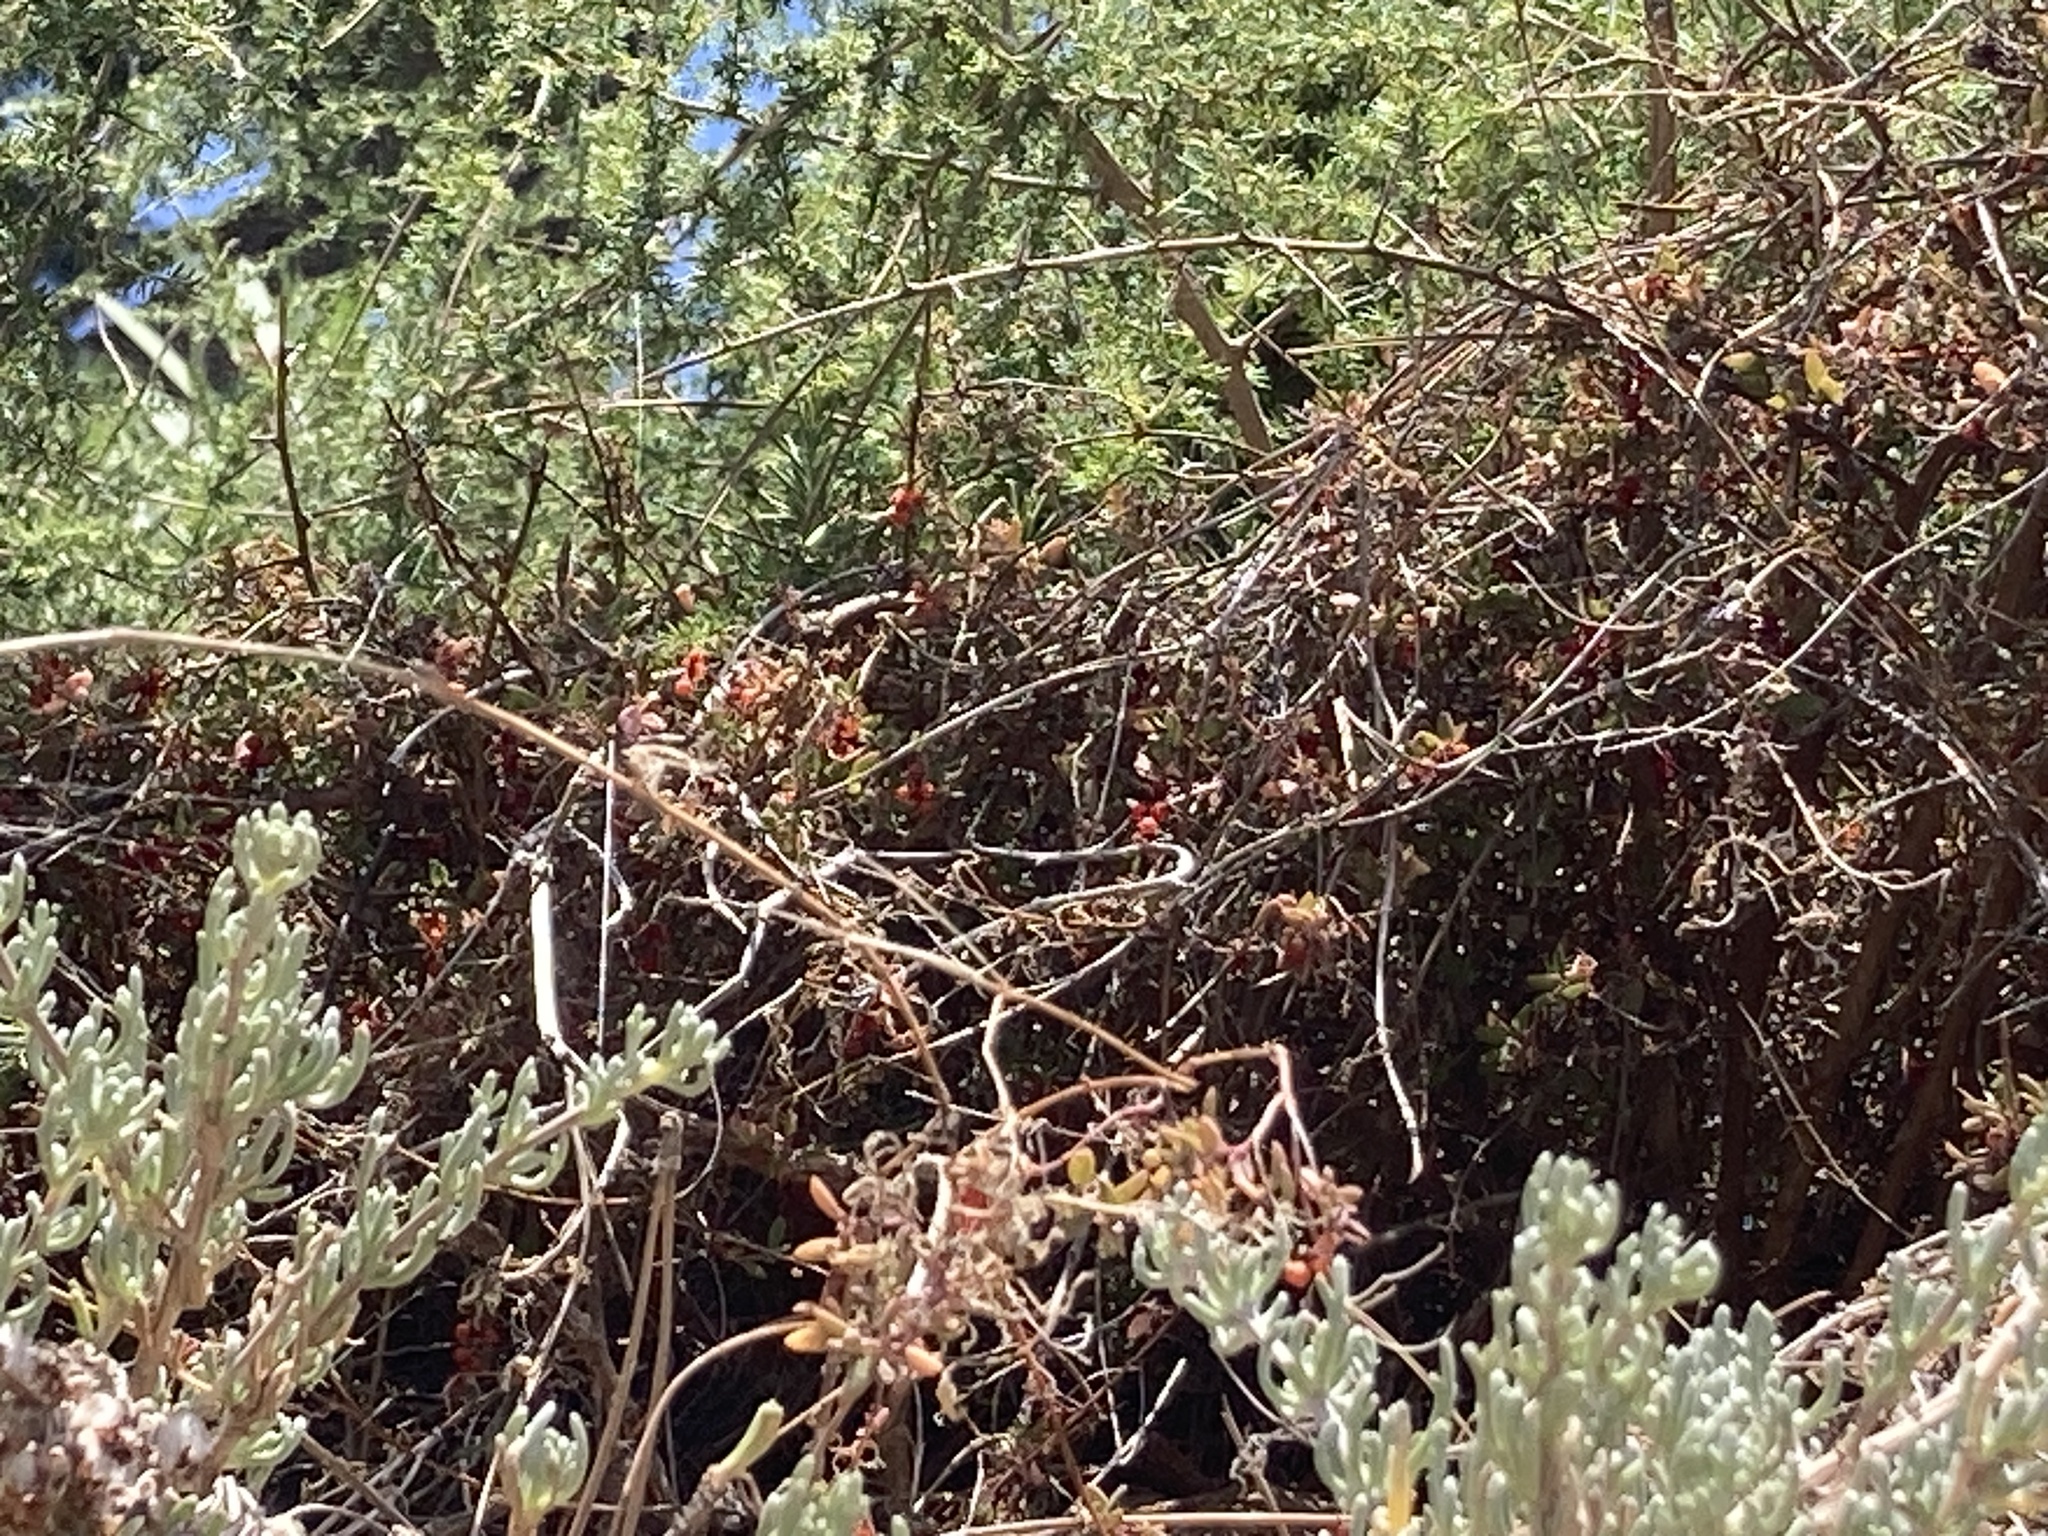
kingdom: Plantae
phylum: Tracheophyta
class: Magnoliopsida
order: Caryophyllales
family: Amaranthaceae
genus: Chenopodium
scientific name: Chenopodium nutans
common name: Climbing-saltbush
